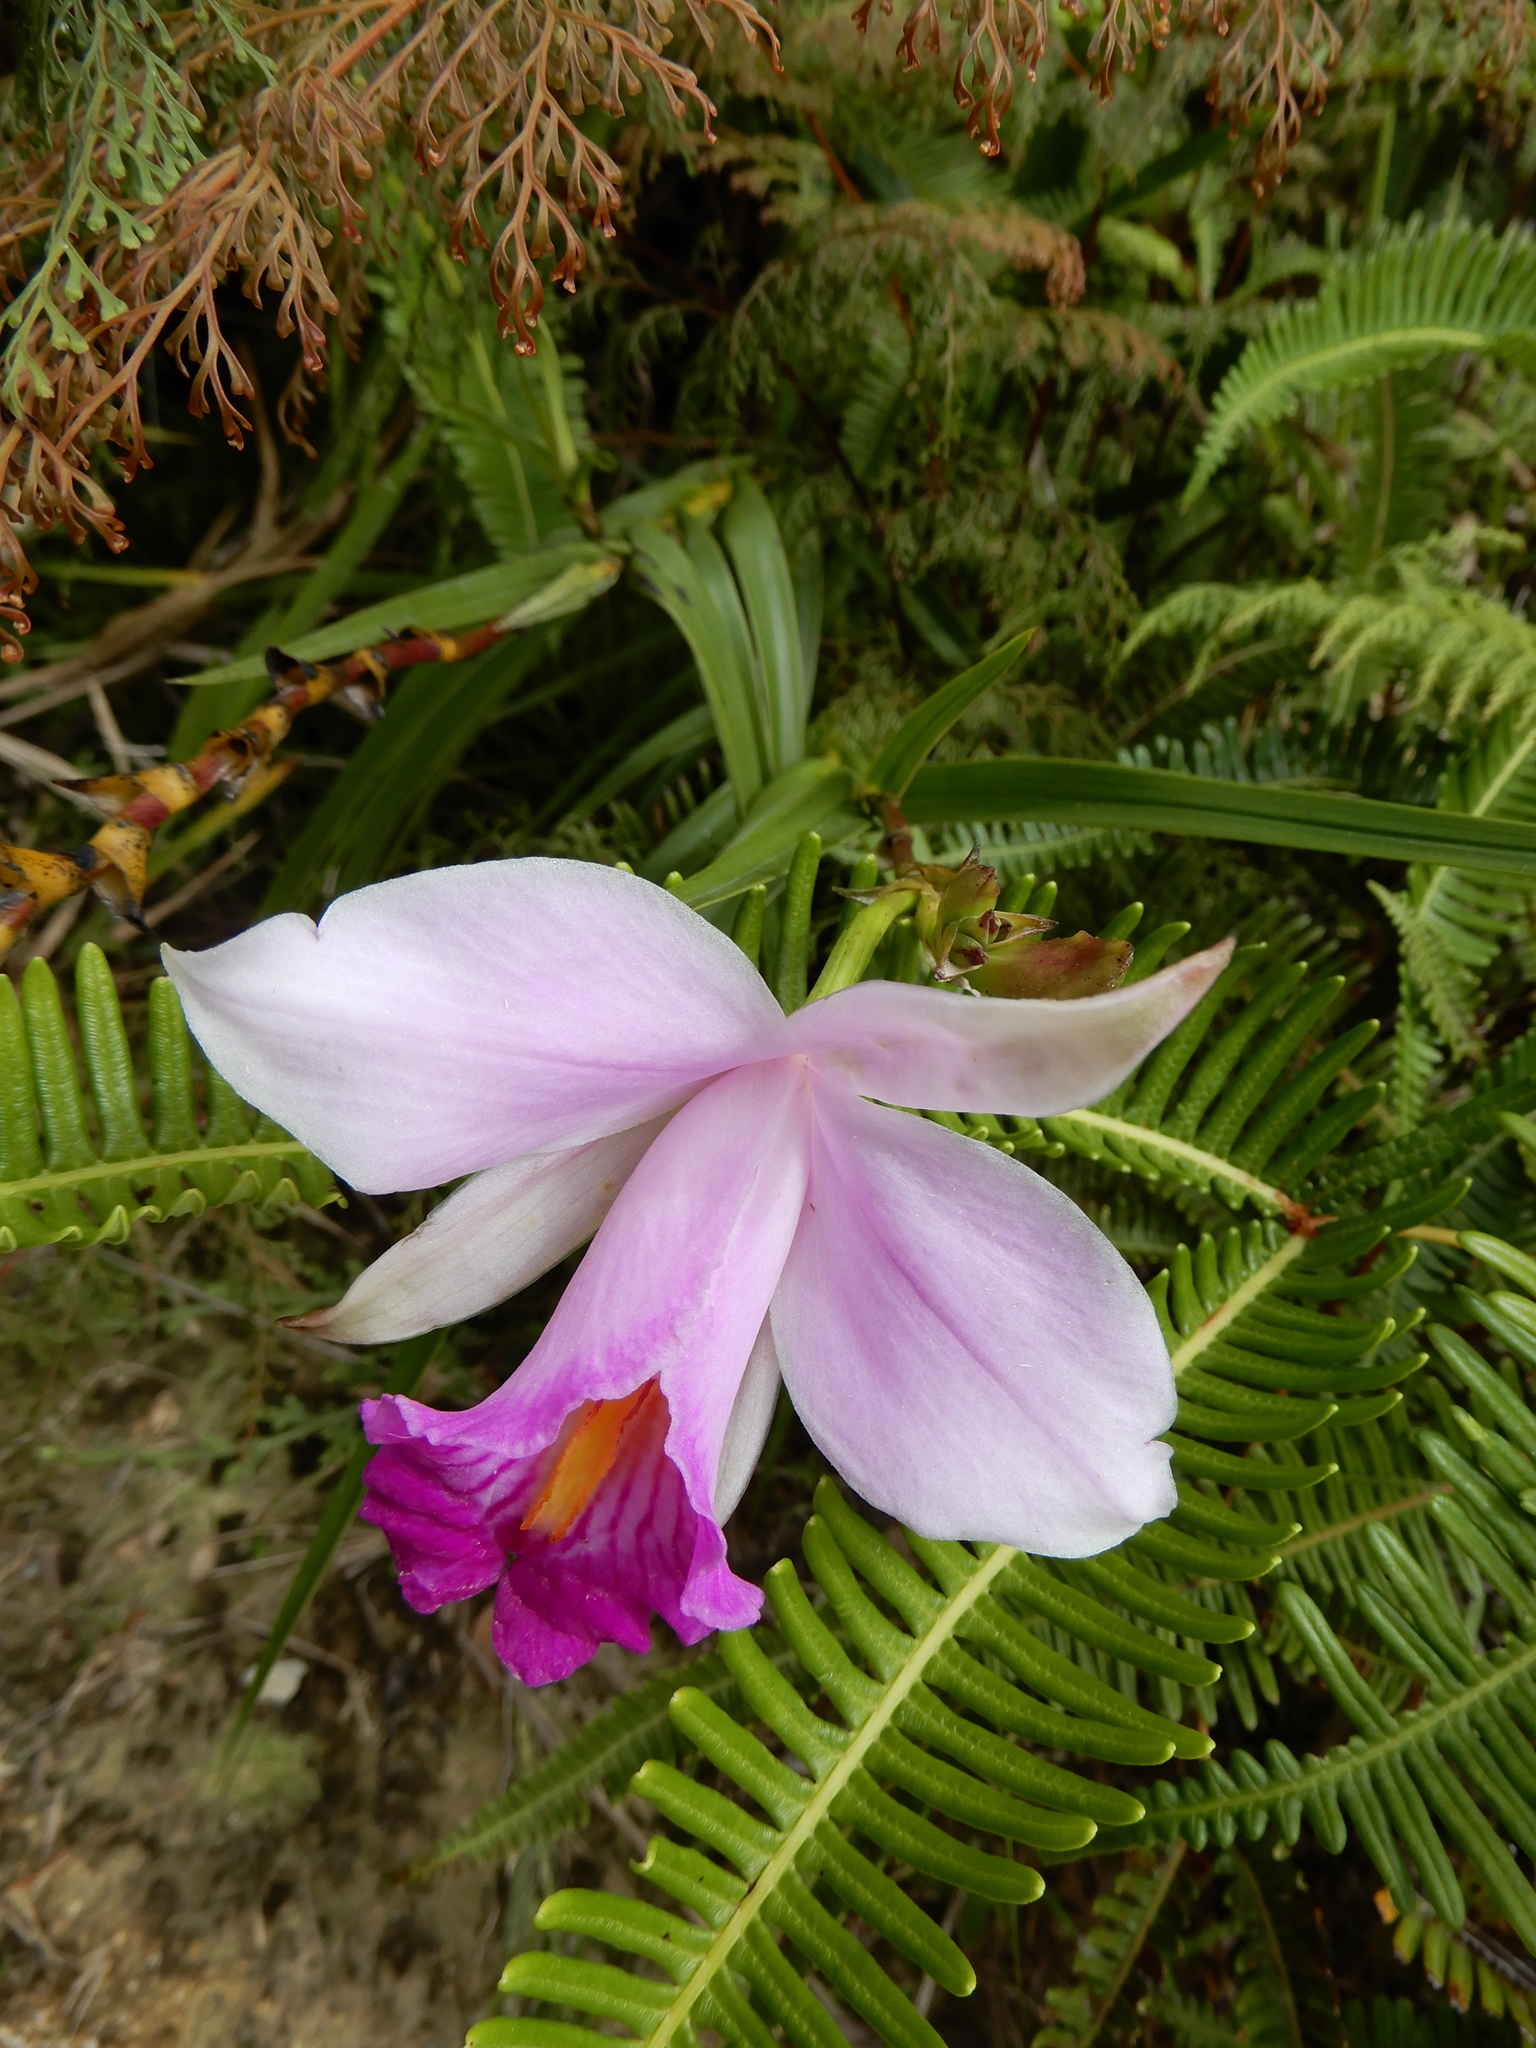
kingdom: Plantae
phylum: Tracheophyta
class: Liliopsida
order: Asparagales
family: Orchidaceae
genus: Arundina
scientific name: Arundina graminifolia
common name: Bamboo orchid
